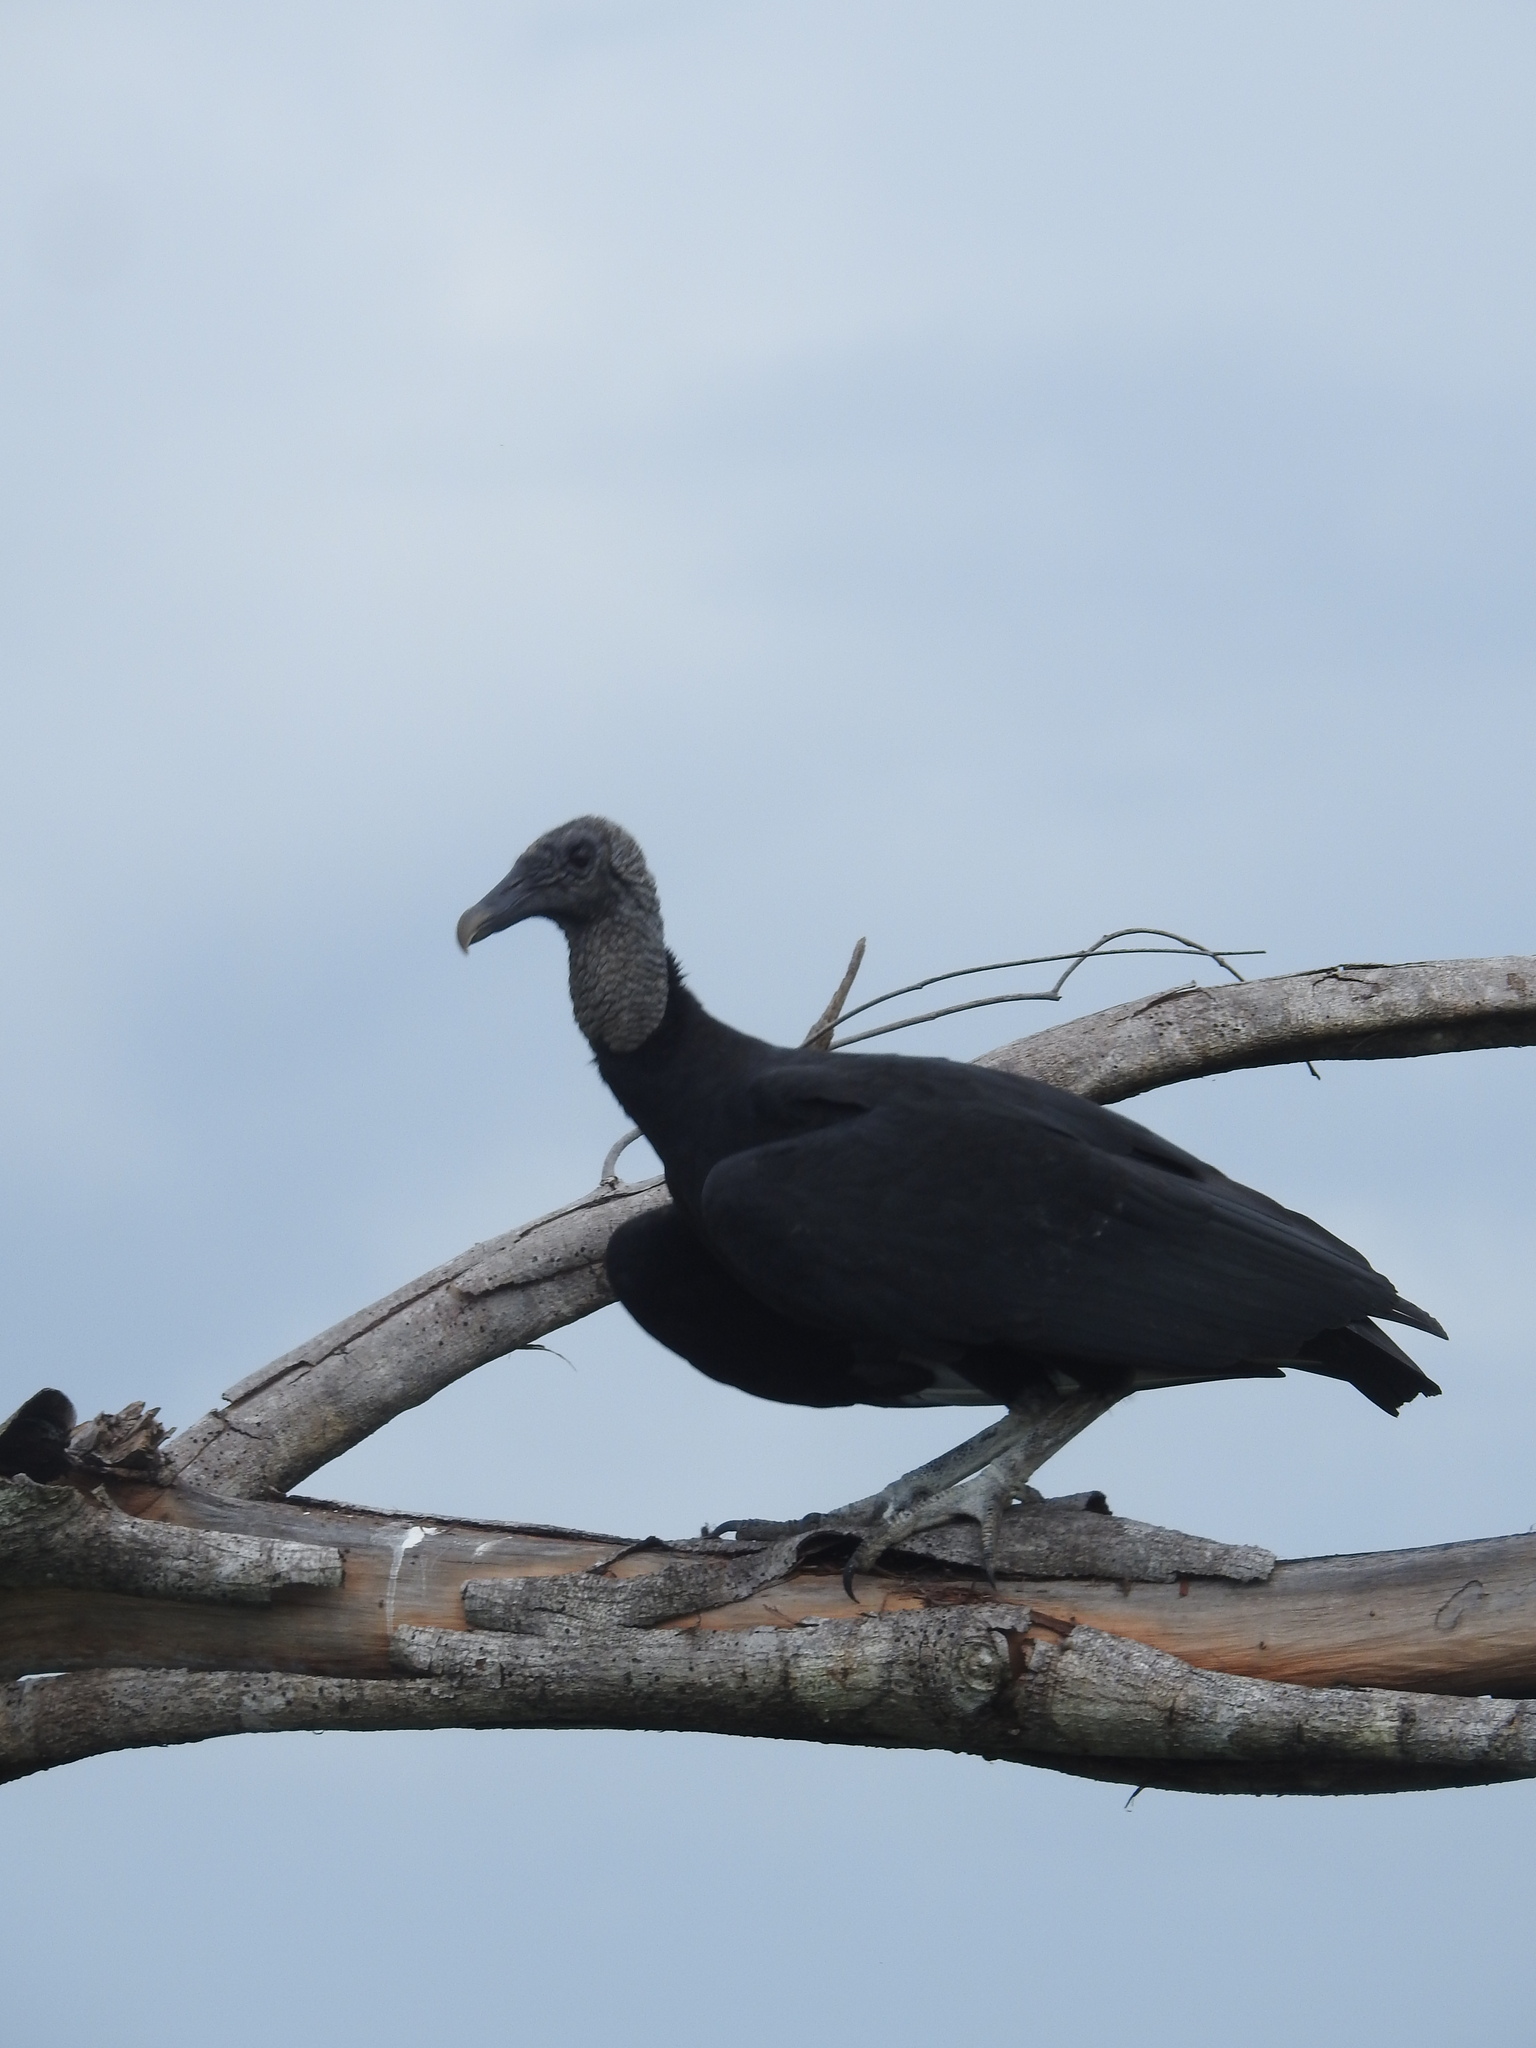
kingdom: Animalia
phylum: Chordata
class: Aves
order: Accipitriformes
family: Cathartidae
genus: Coragyps
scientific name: Coragyps atratus
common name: Black vulture
